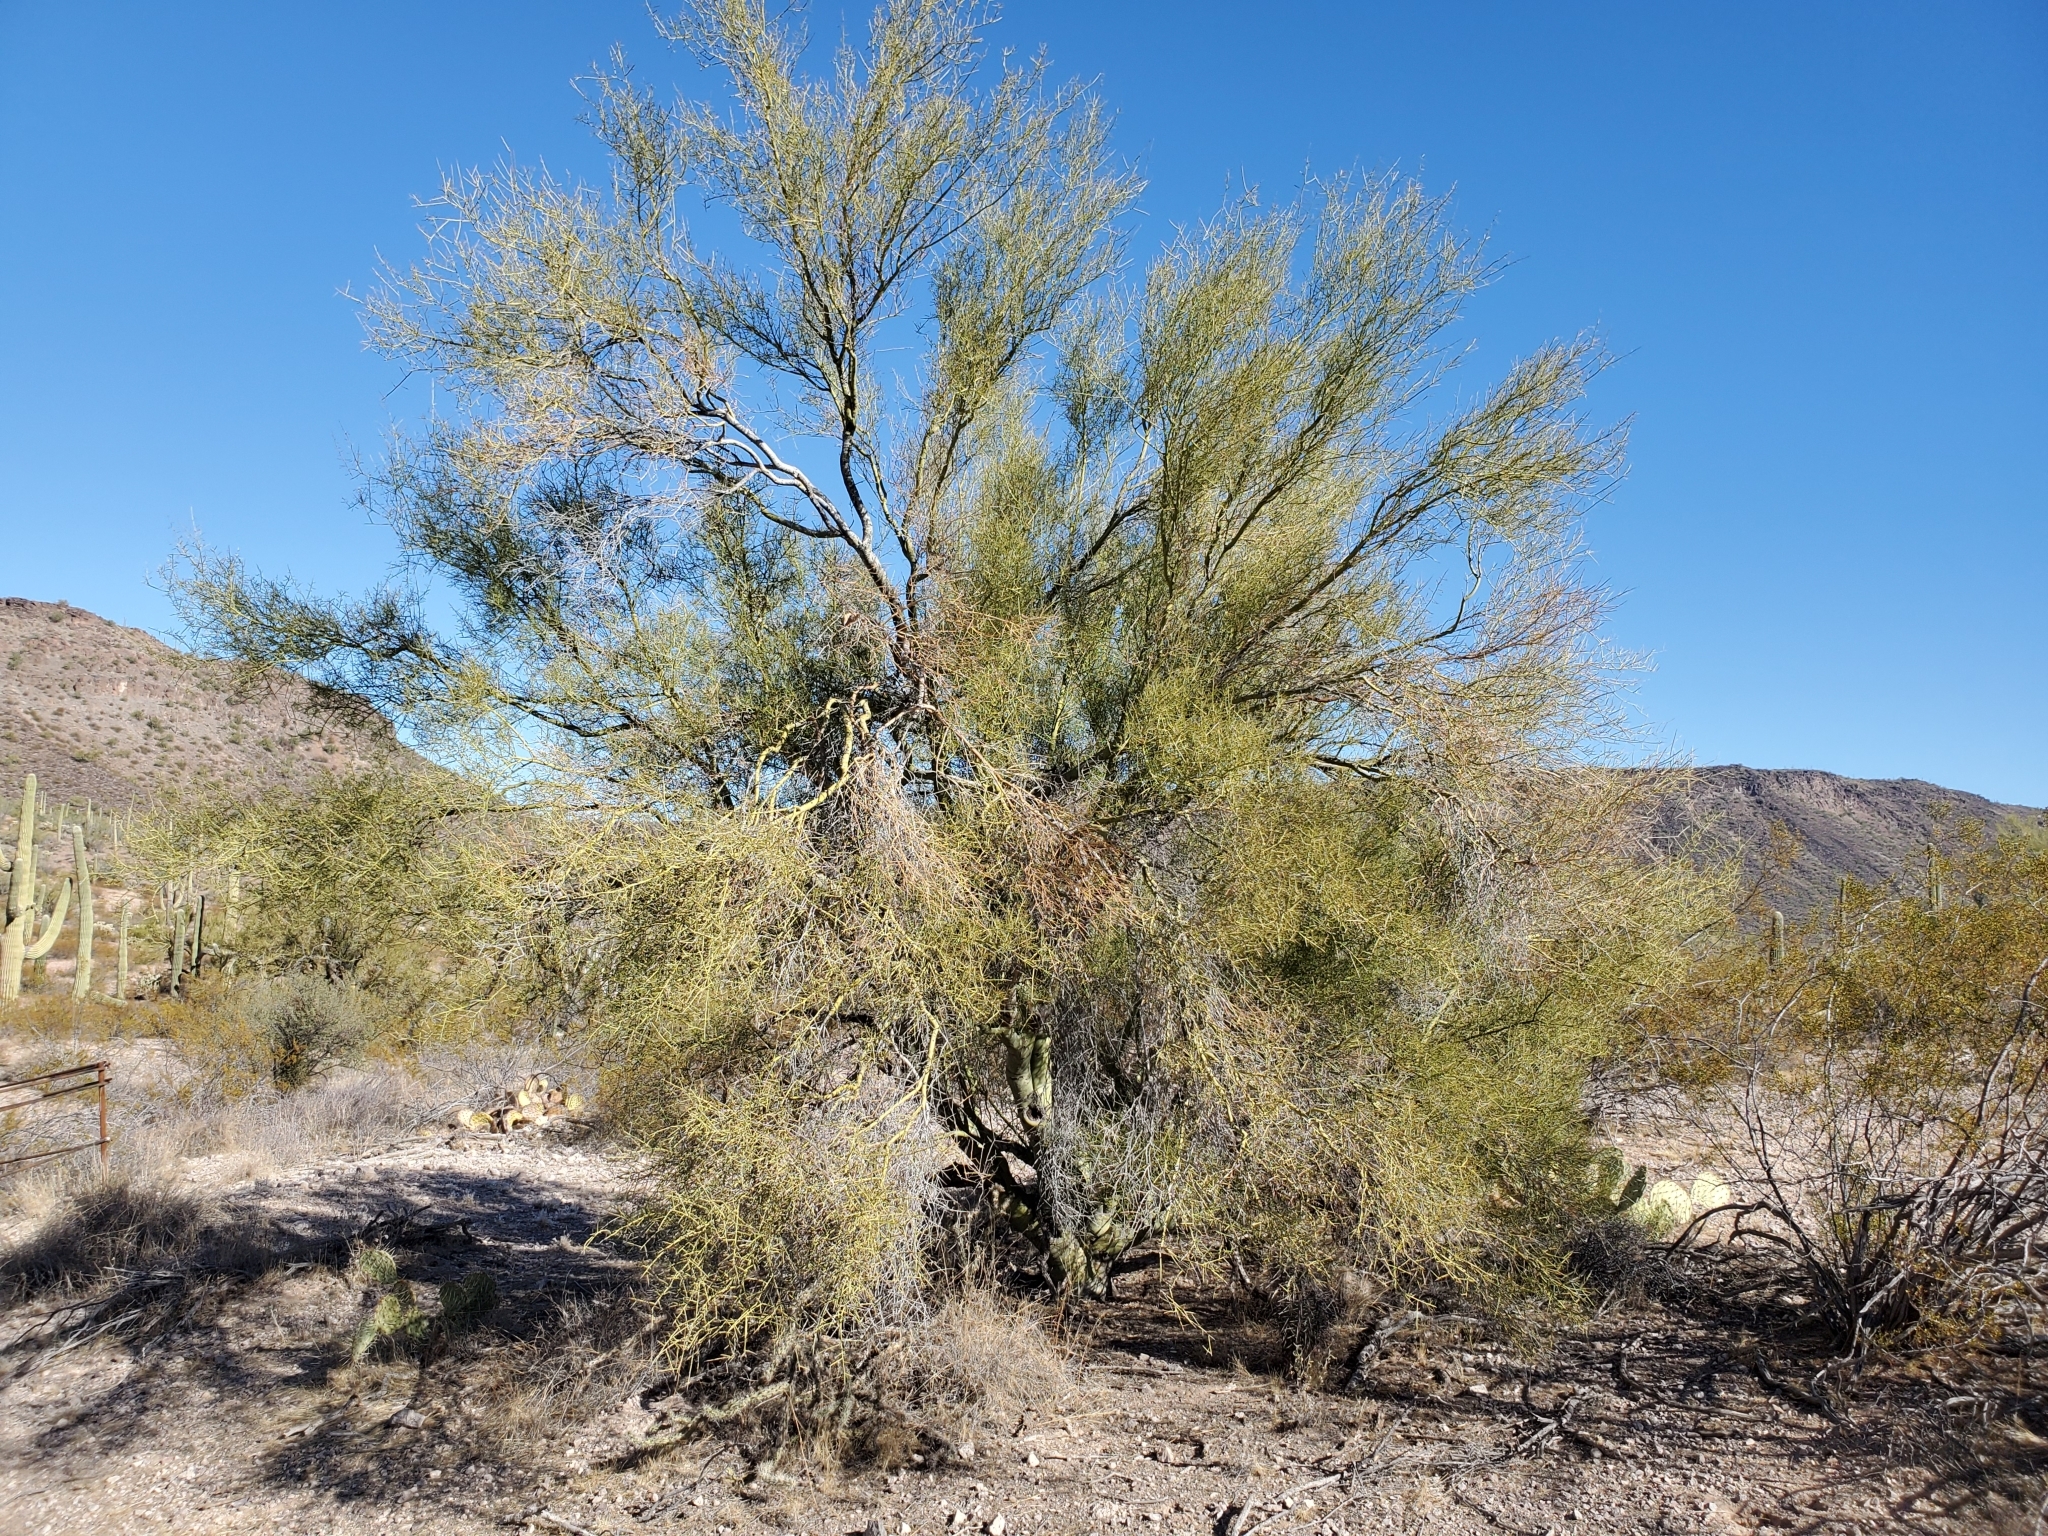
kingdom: Plantae
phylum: Tracheophyta
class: Magnoliopsida
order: Fabales
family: Fabaceae
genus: Parkinsonia
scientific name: Parkinsonia microphylla
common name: Yellow paloverde
